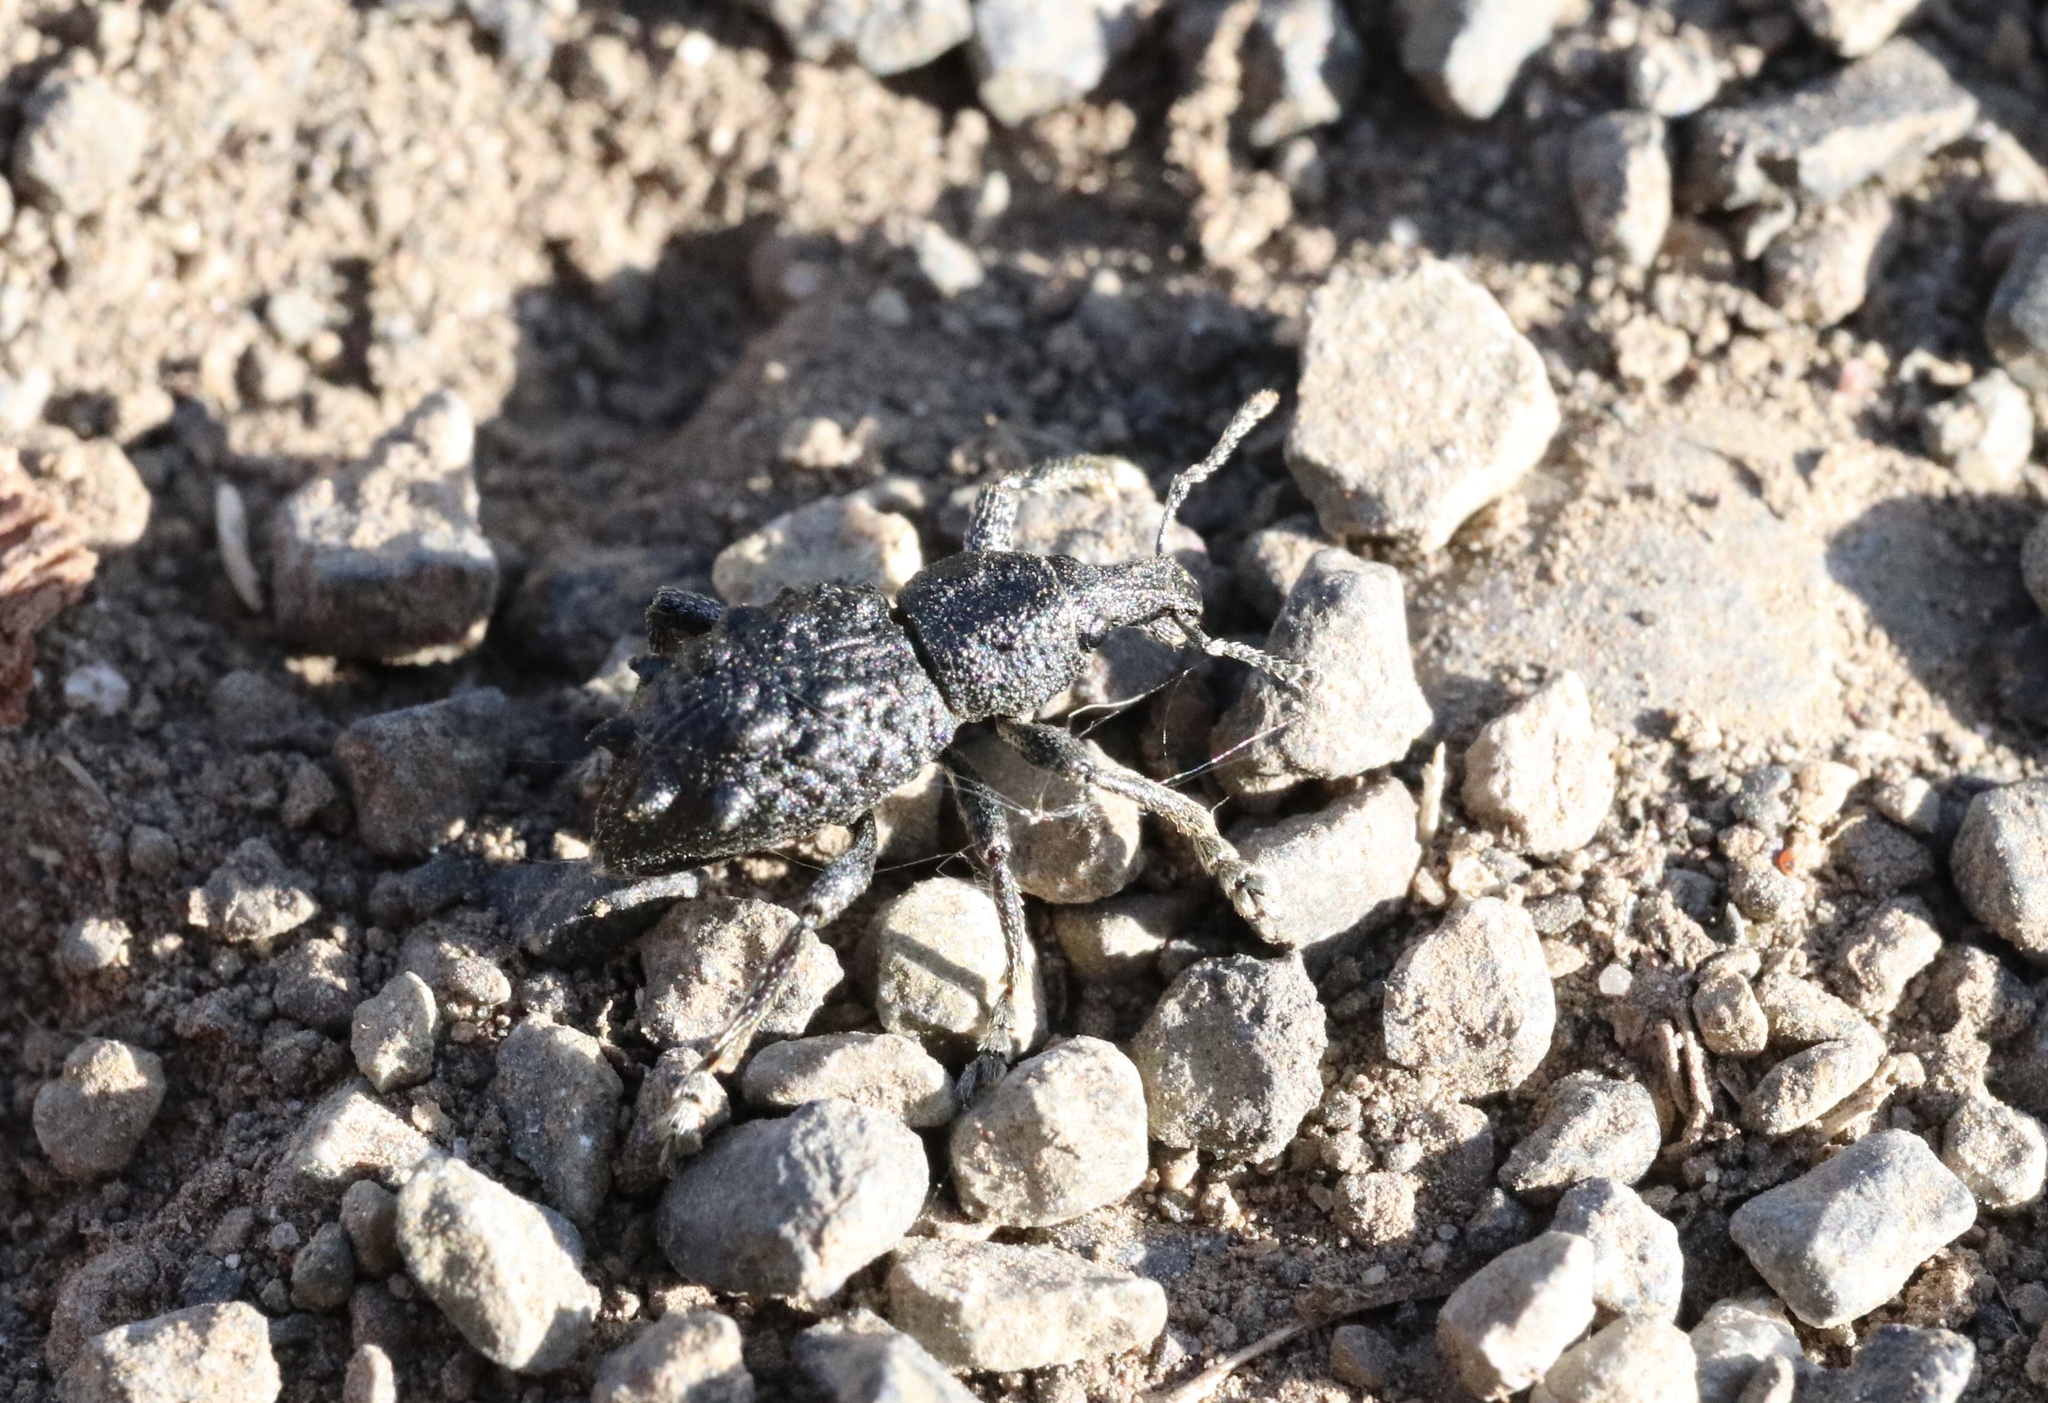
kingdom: Animalia
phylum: Arthropoda
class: Insecta
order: Coleoptera
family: Curculionidae
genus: Megalometis
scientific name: Megalometis spiniferus
